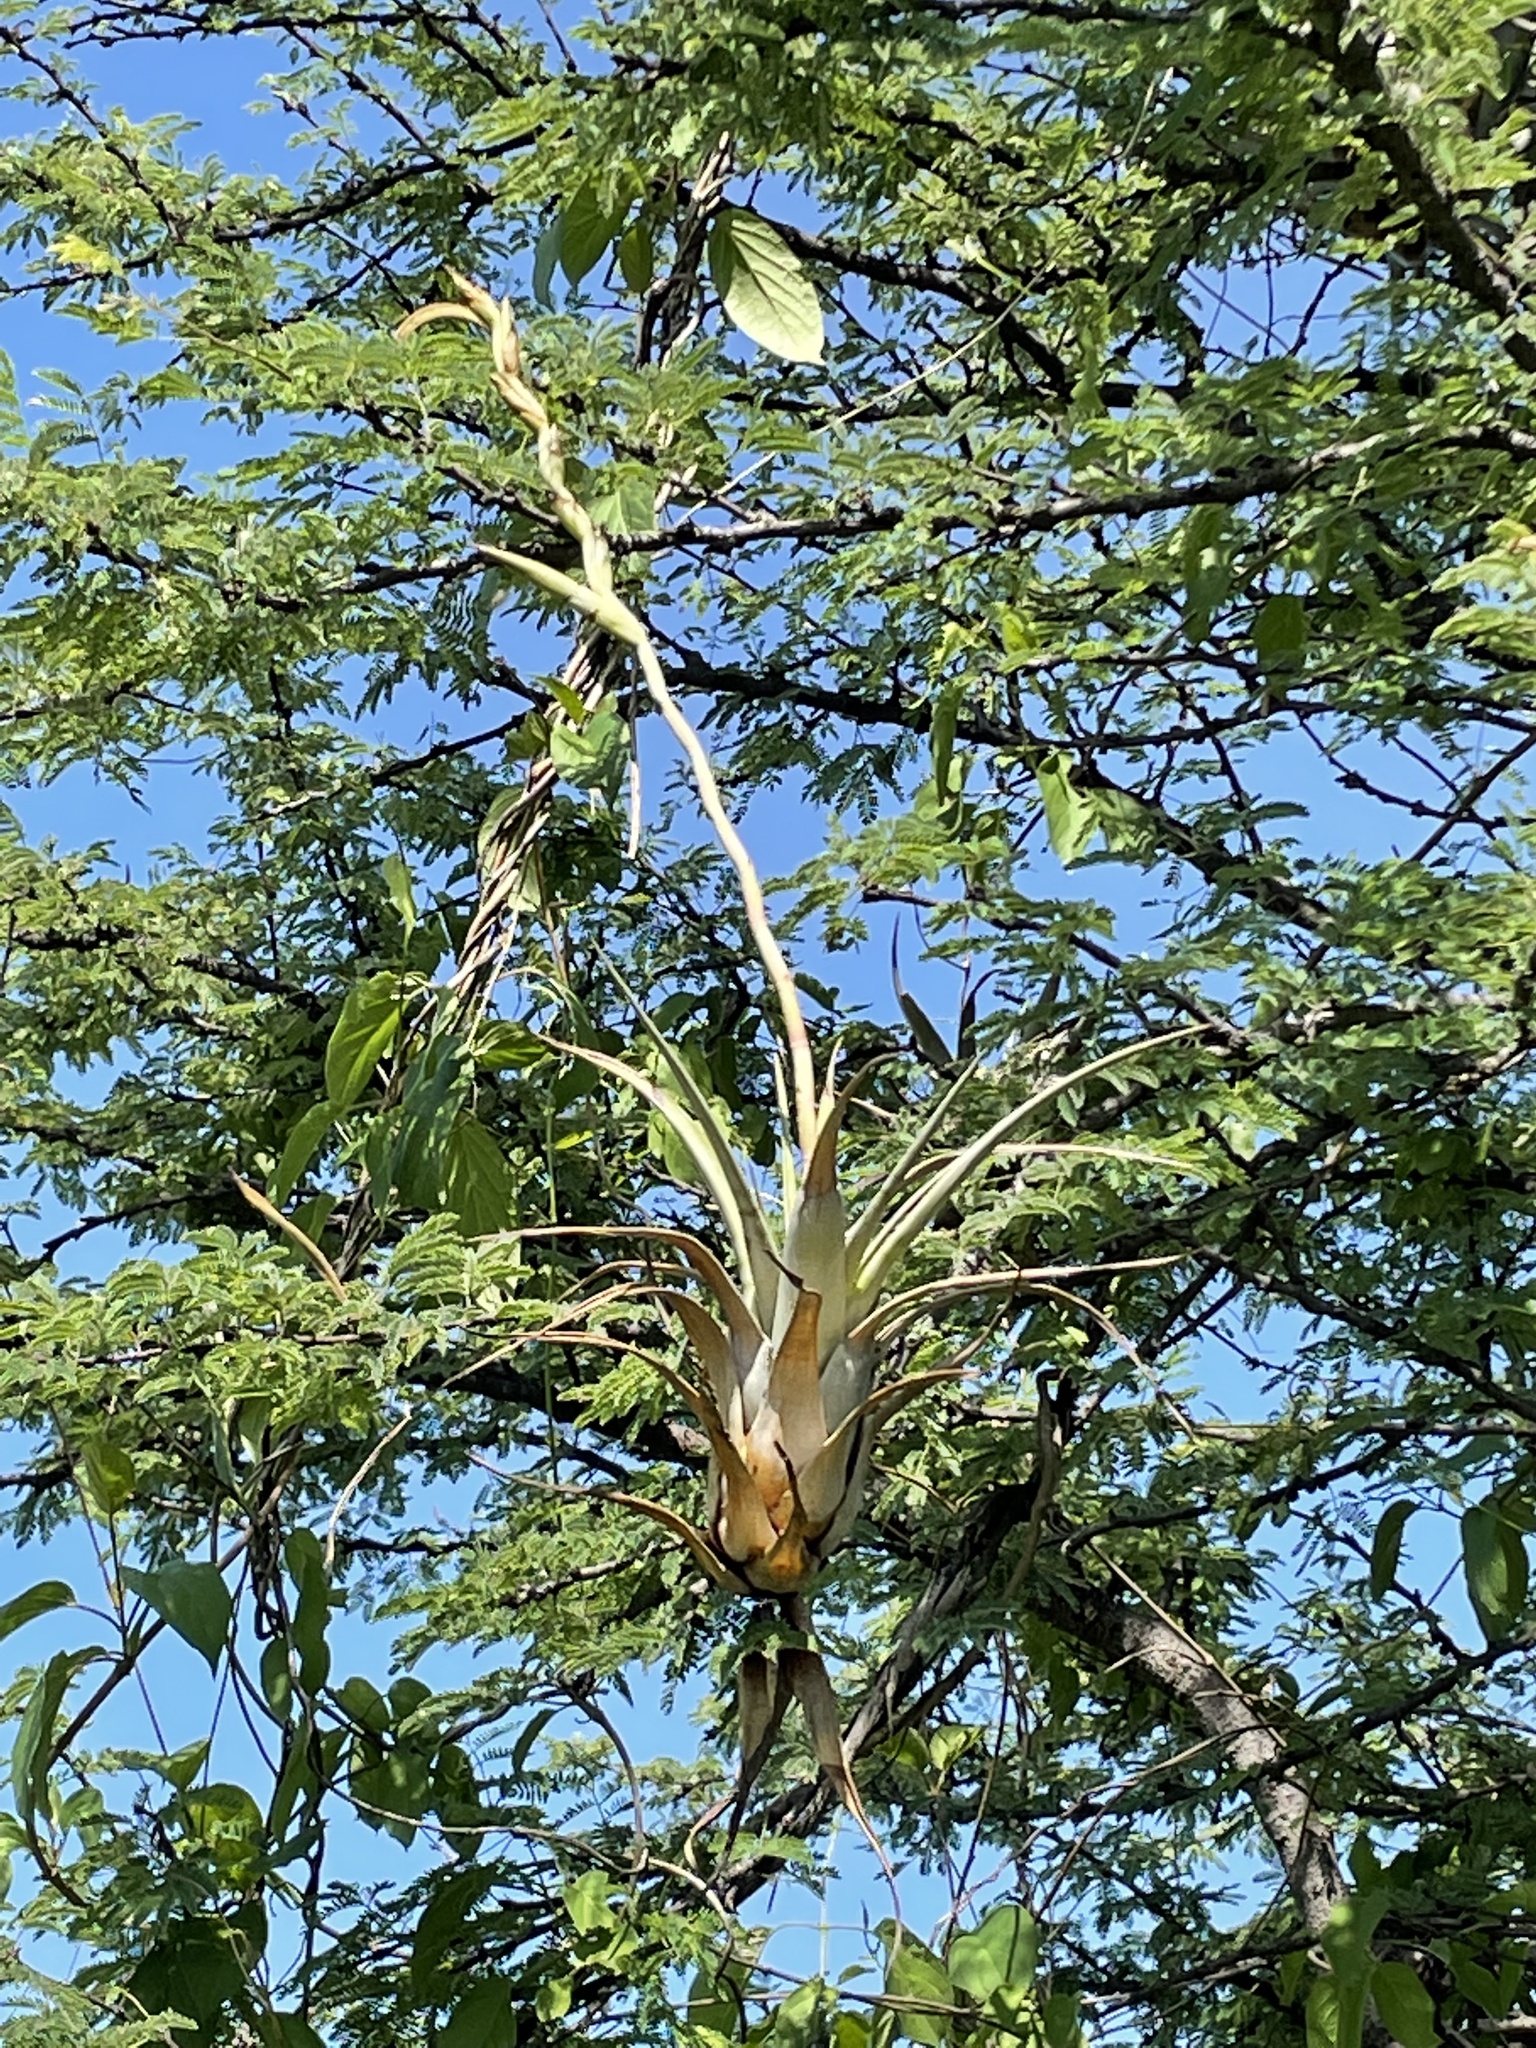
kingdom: Plantae
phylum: Tracheophyta
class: Liliopsida
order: Poales
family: Bromeliaceae
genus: Tillandsia
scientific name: Tillandsia makoyana
